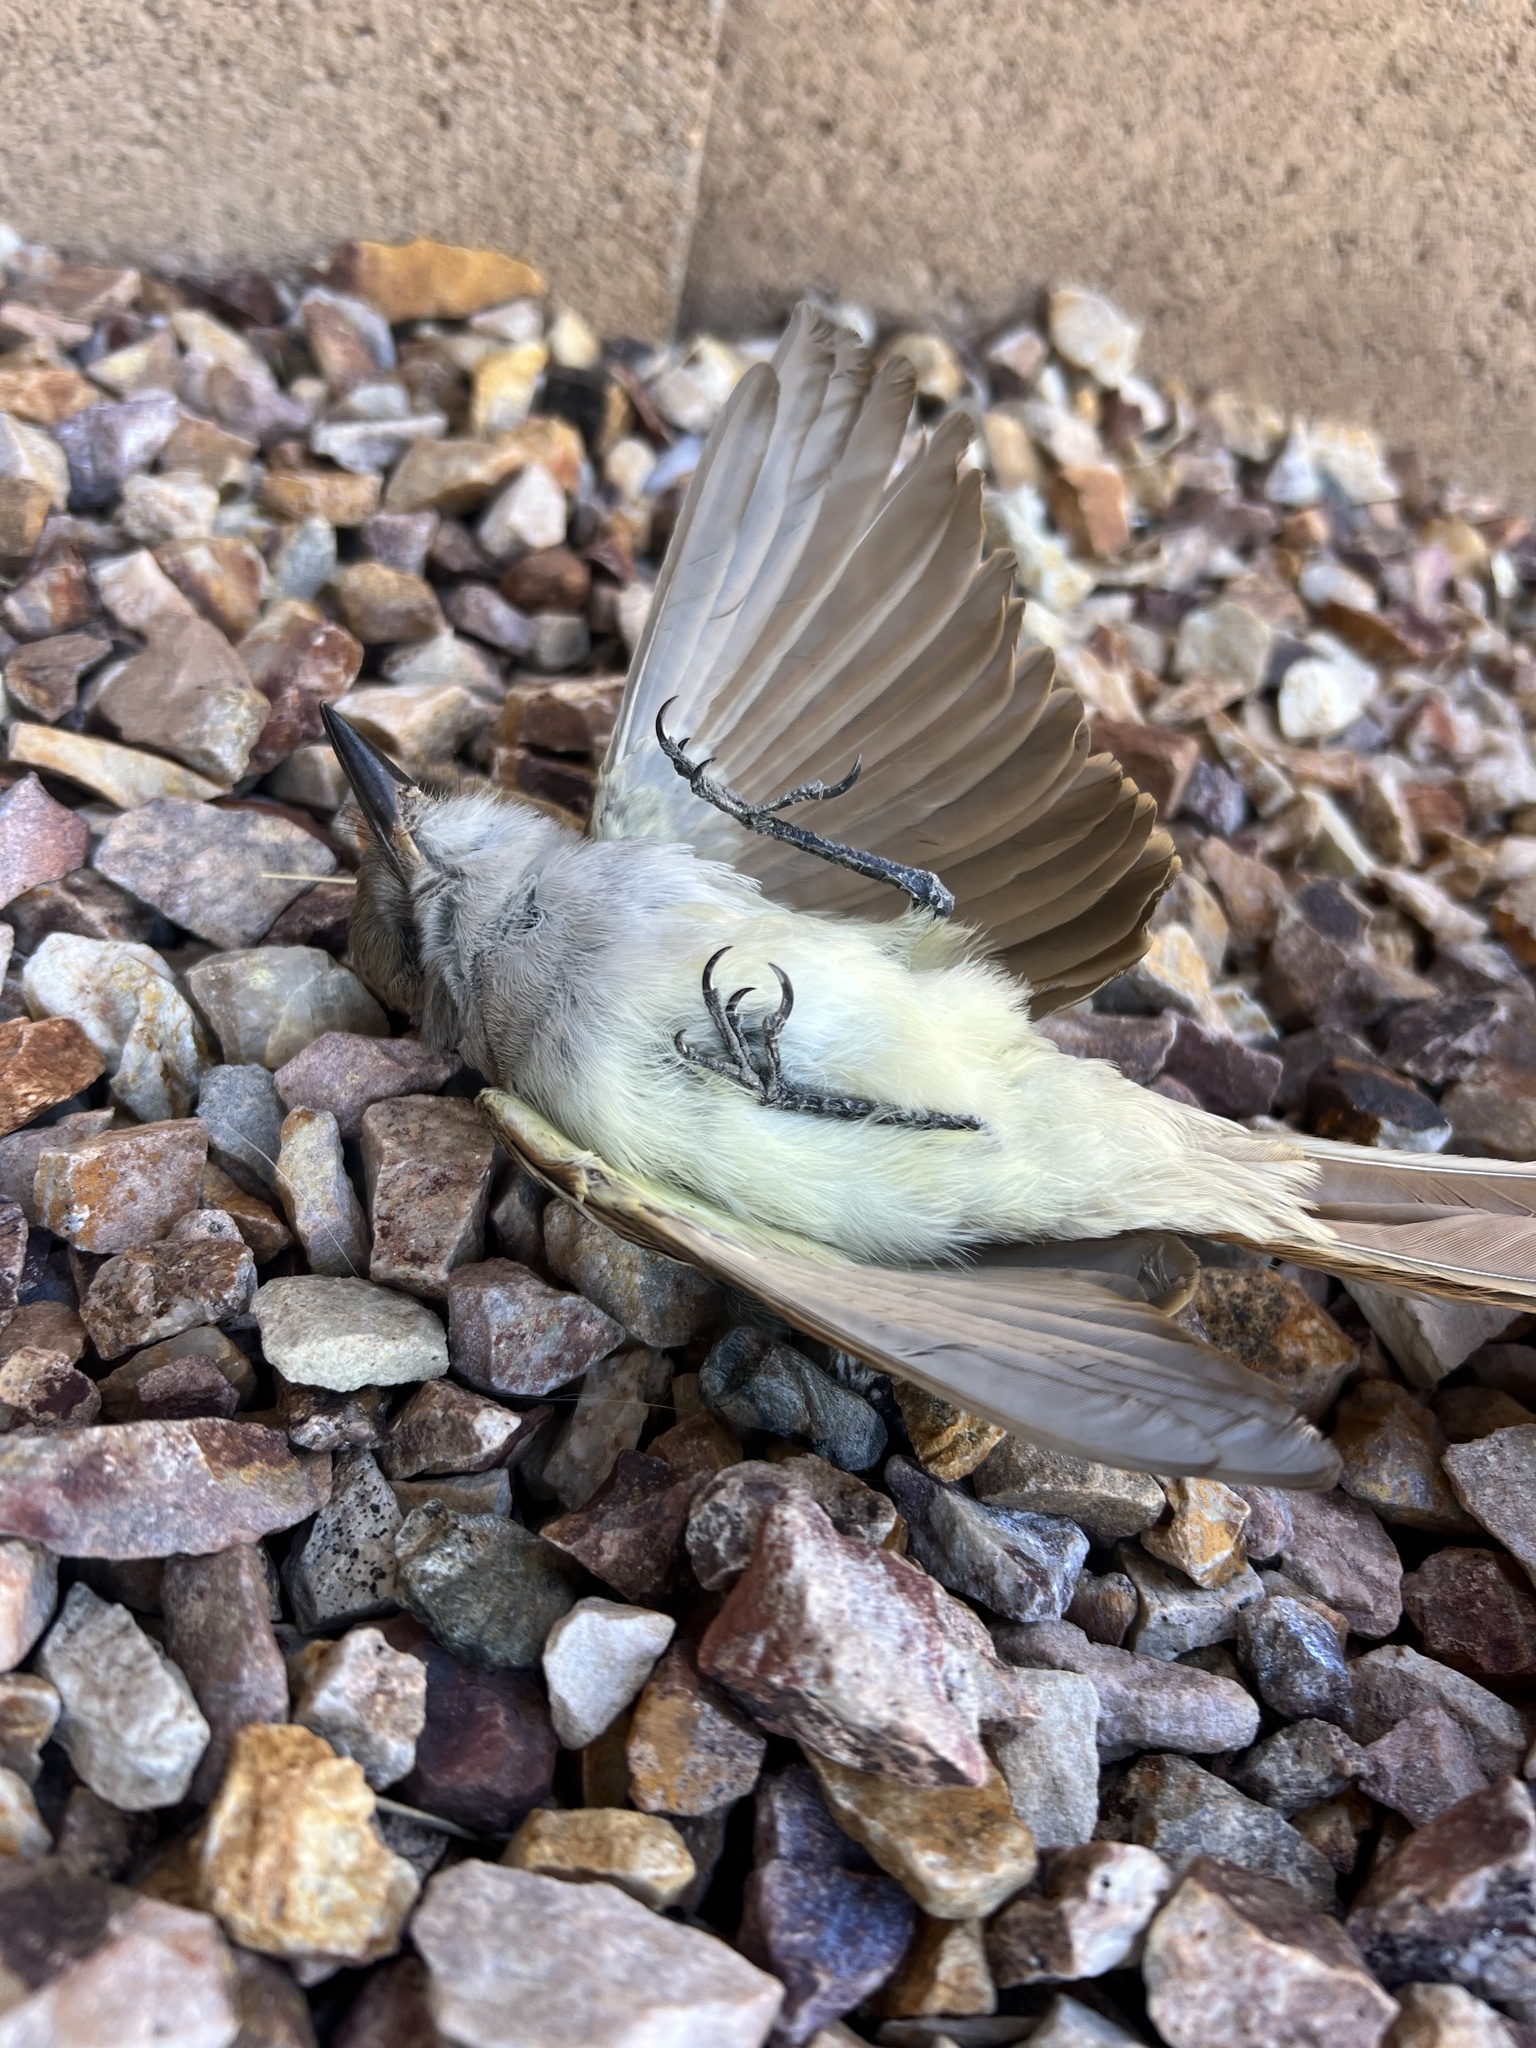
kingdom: Animalia
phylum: Chordata
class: Aves
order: Passeriformes
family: Tyrannidae
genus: Myiarchus
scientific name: Myiarchus cinerascens
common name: Ash-throated flycatcher
